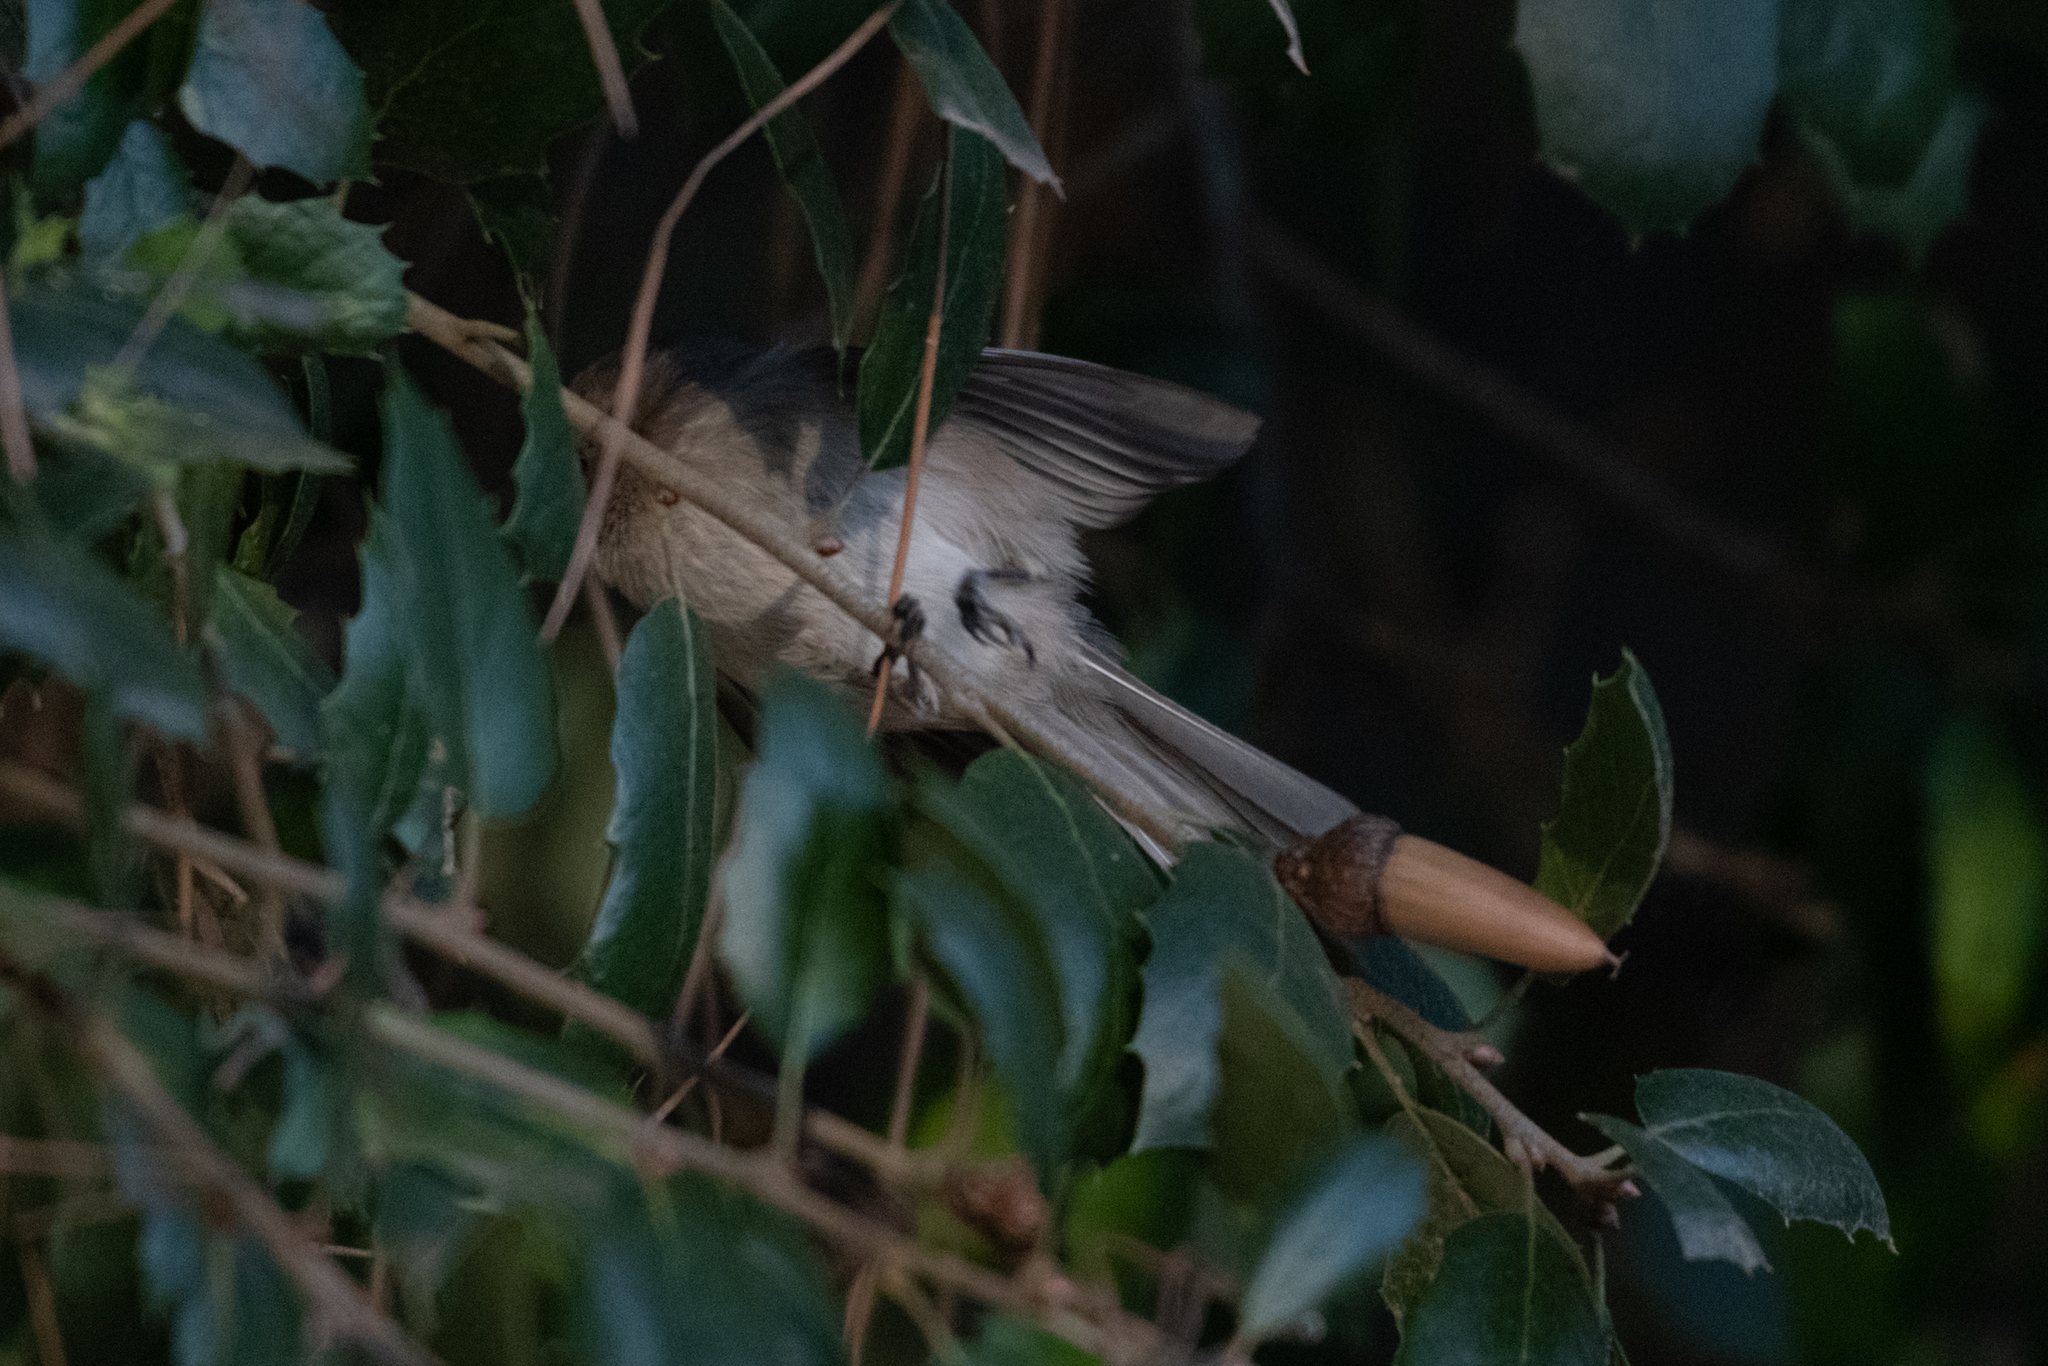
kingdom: Animalia
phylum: Chordata
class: Aves
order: Passeriformes
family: Aegithalidae
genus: Psaltriparus
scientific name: Psaltriparus minimus
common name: American bushtit
